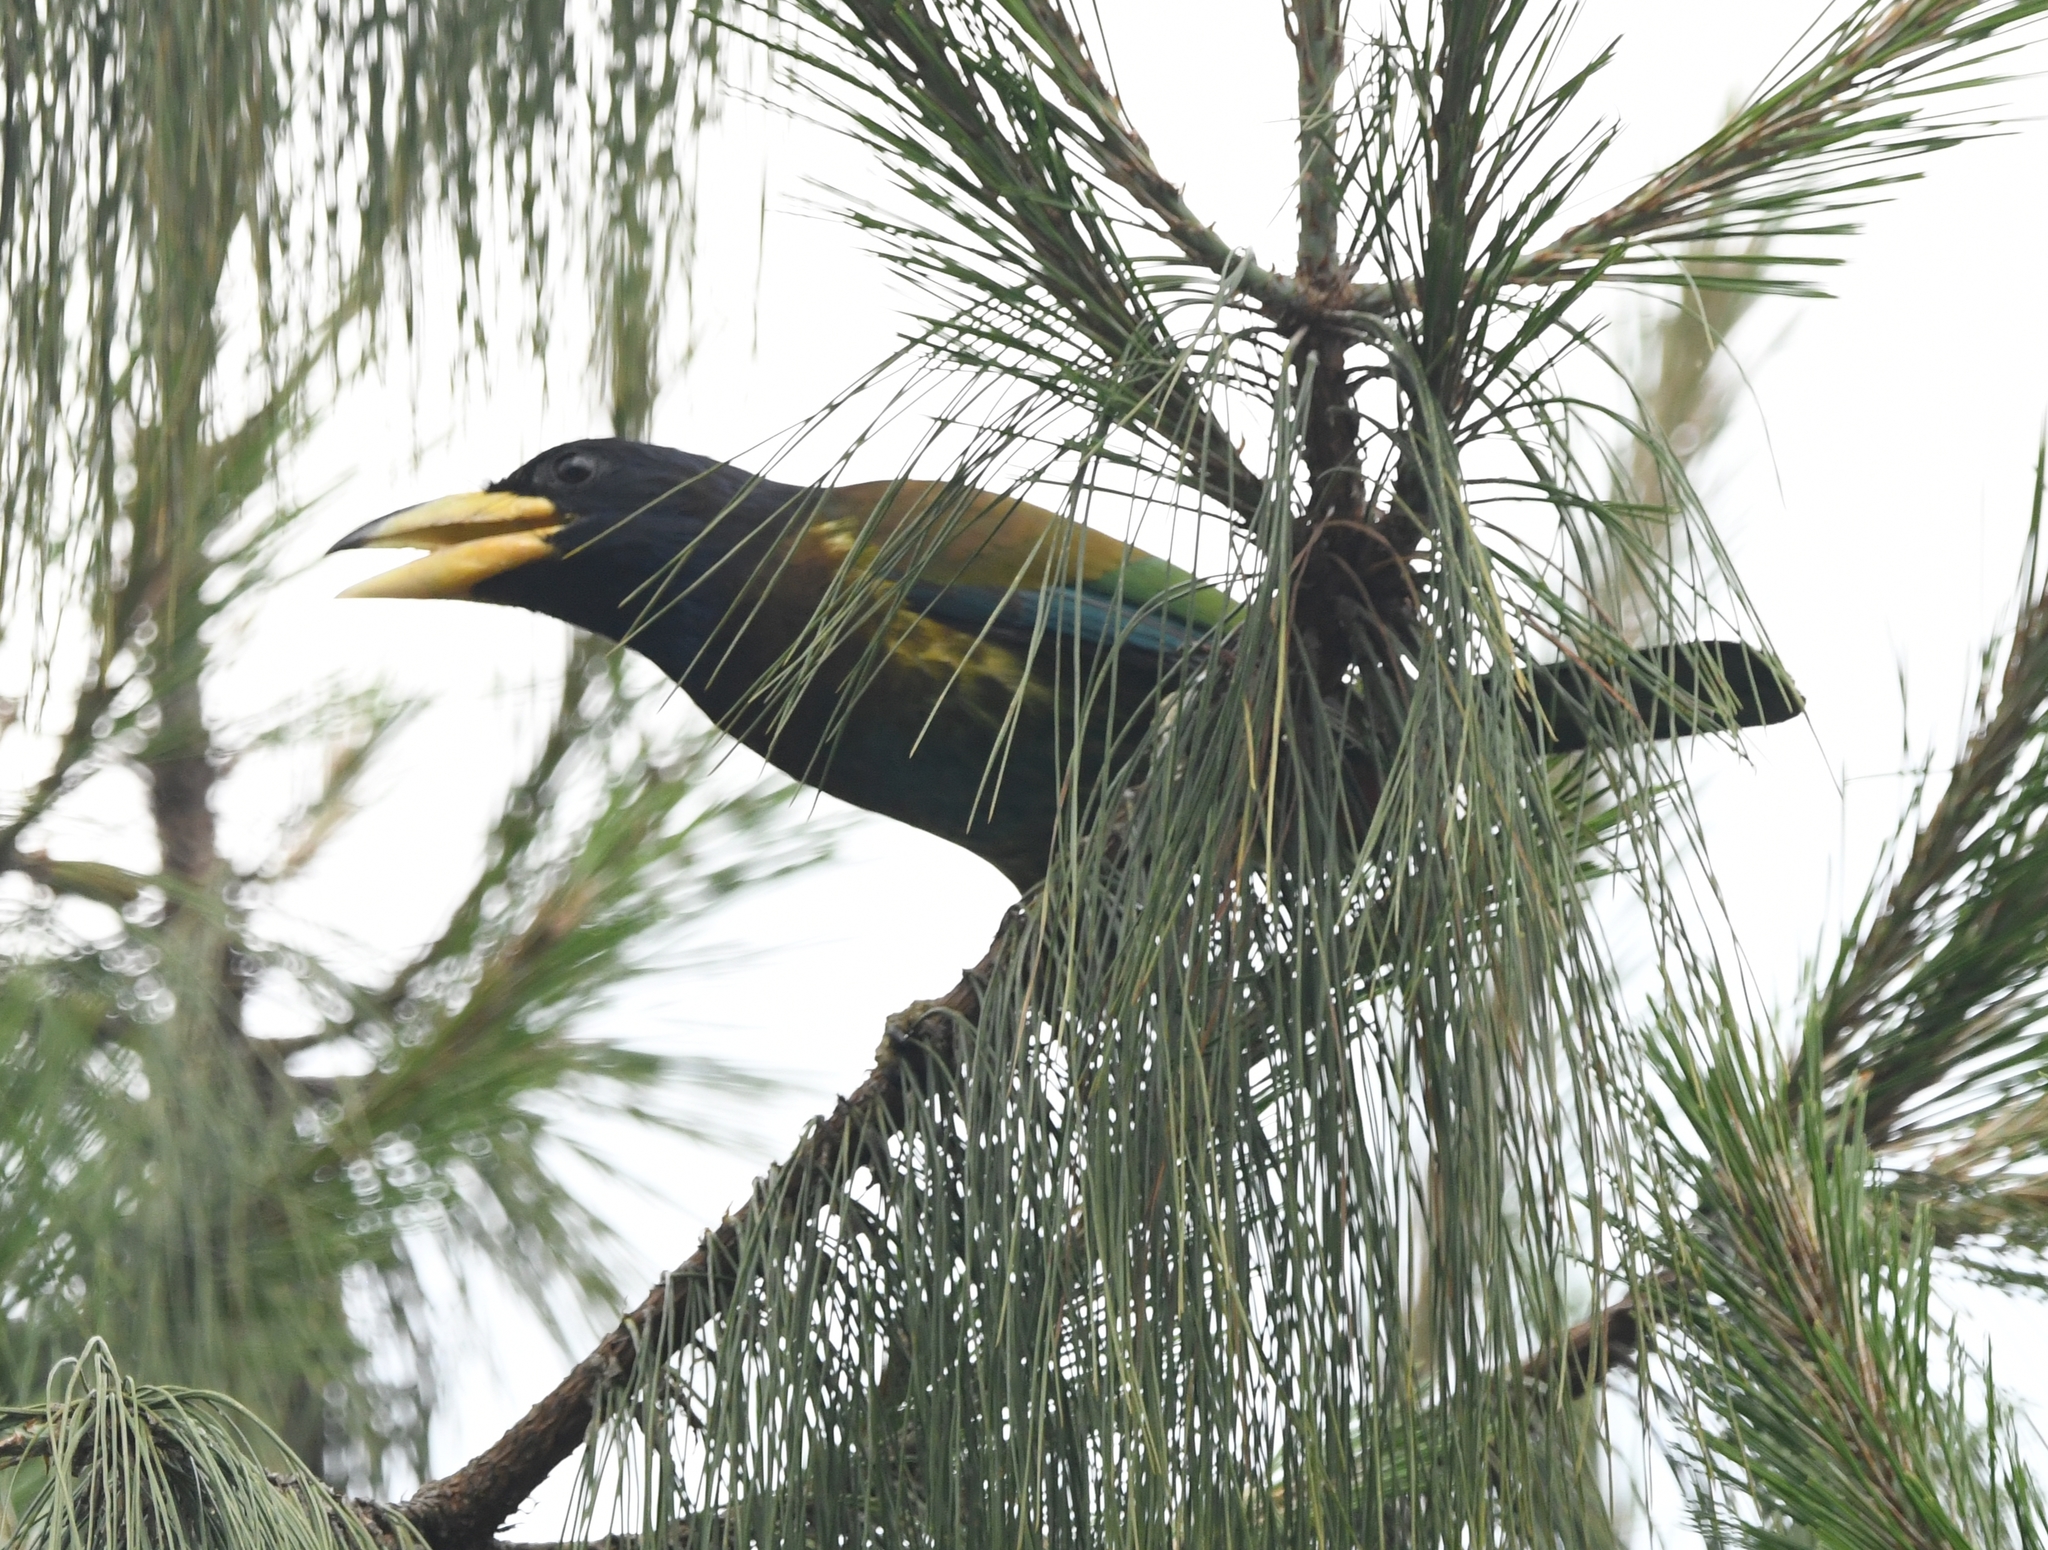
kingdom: Animalia
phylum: Chordata
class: Aves
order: Piciformes
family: Megalaimidae
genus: Psilopogon
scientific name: Psilopogon virens
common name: Great barbet
